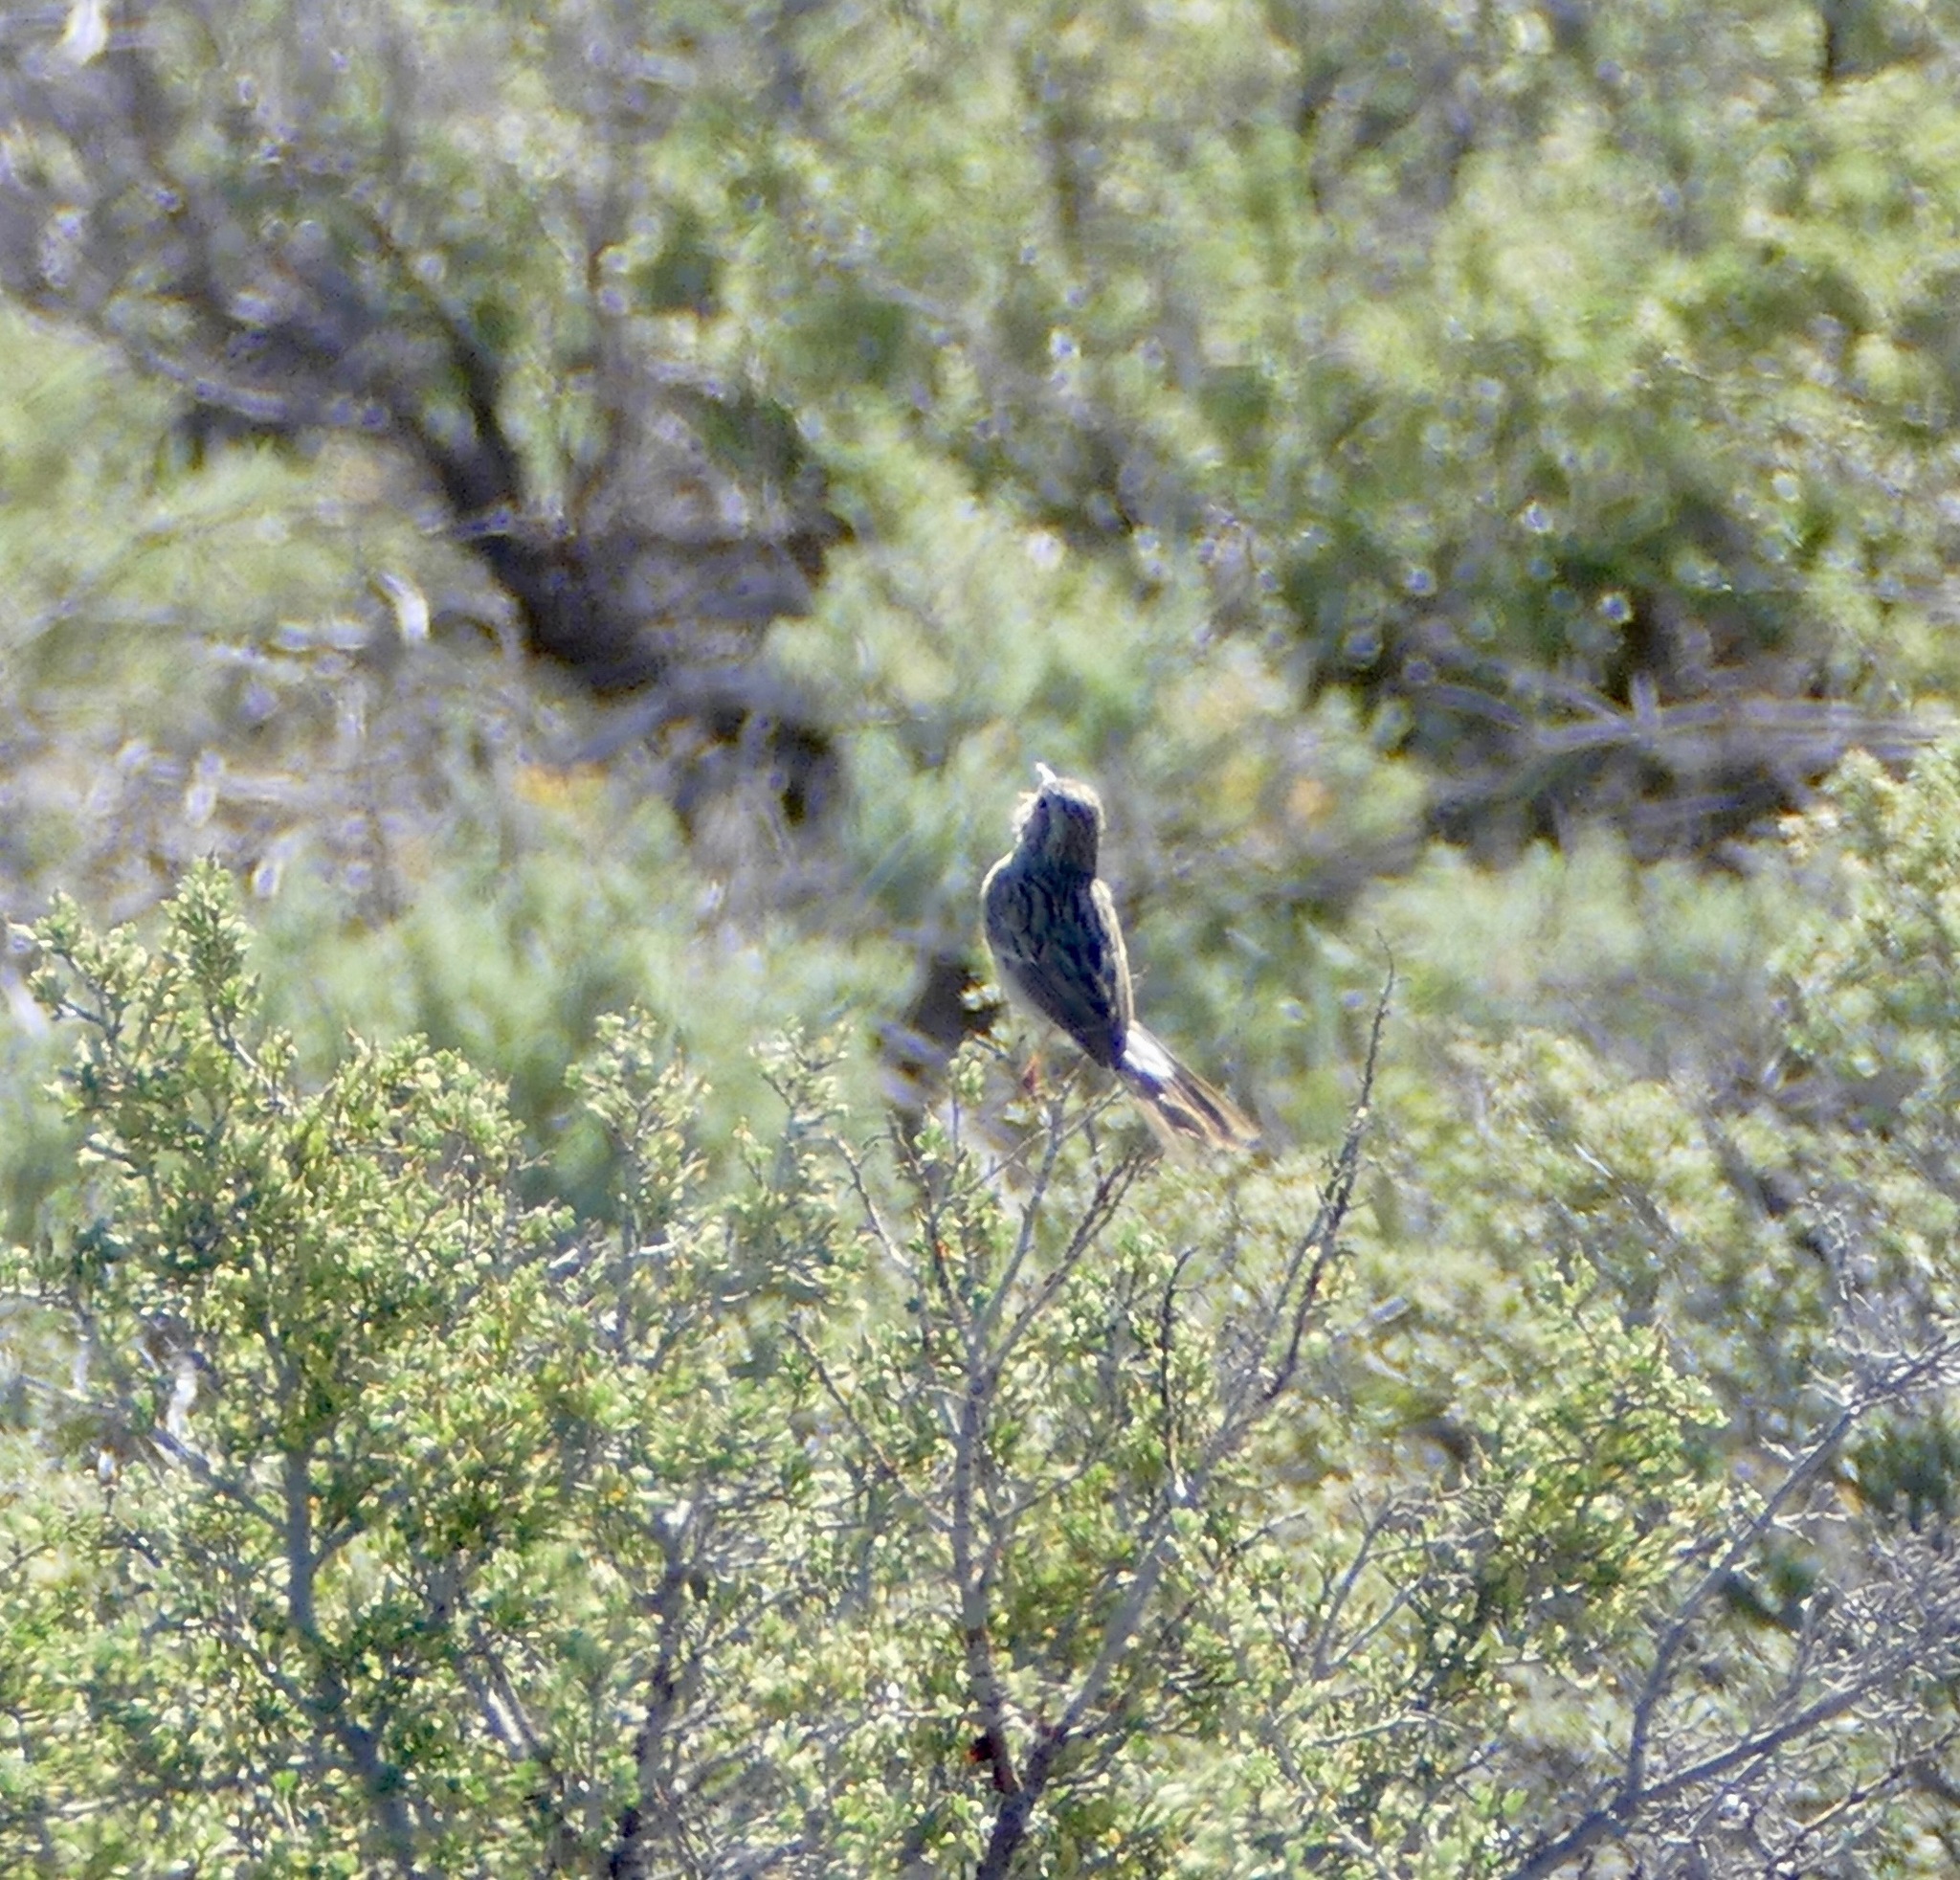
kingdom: Animalia
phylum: Chordata
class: Aves
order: Passeriformes
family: Passerellidae
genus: Spizella
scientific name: Spizella breweri
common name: Brewer's sparrow
